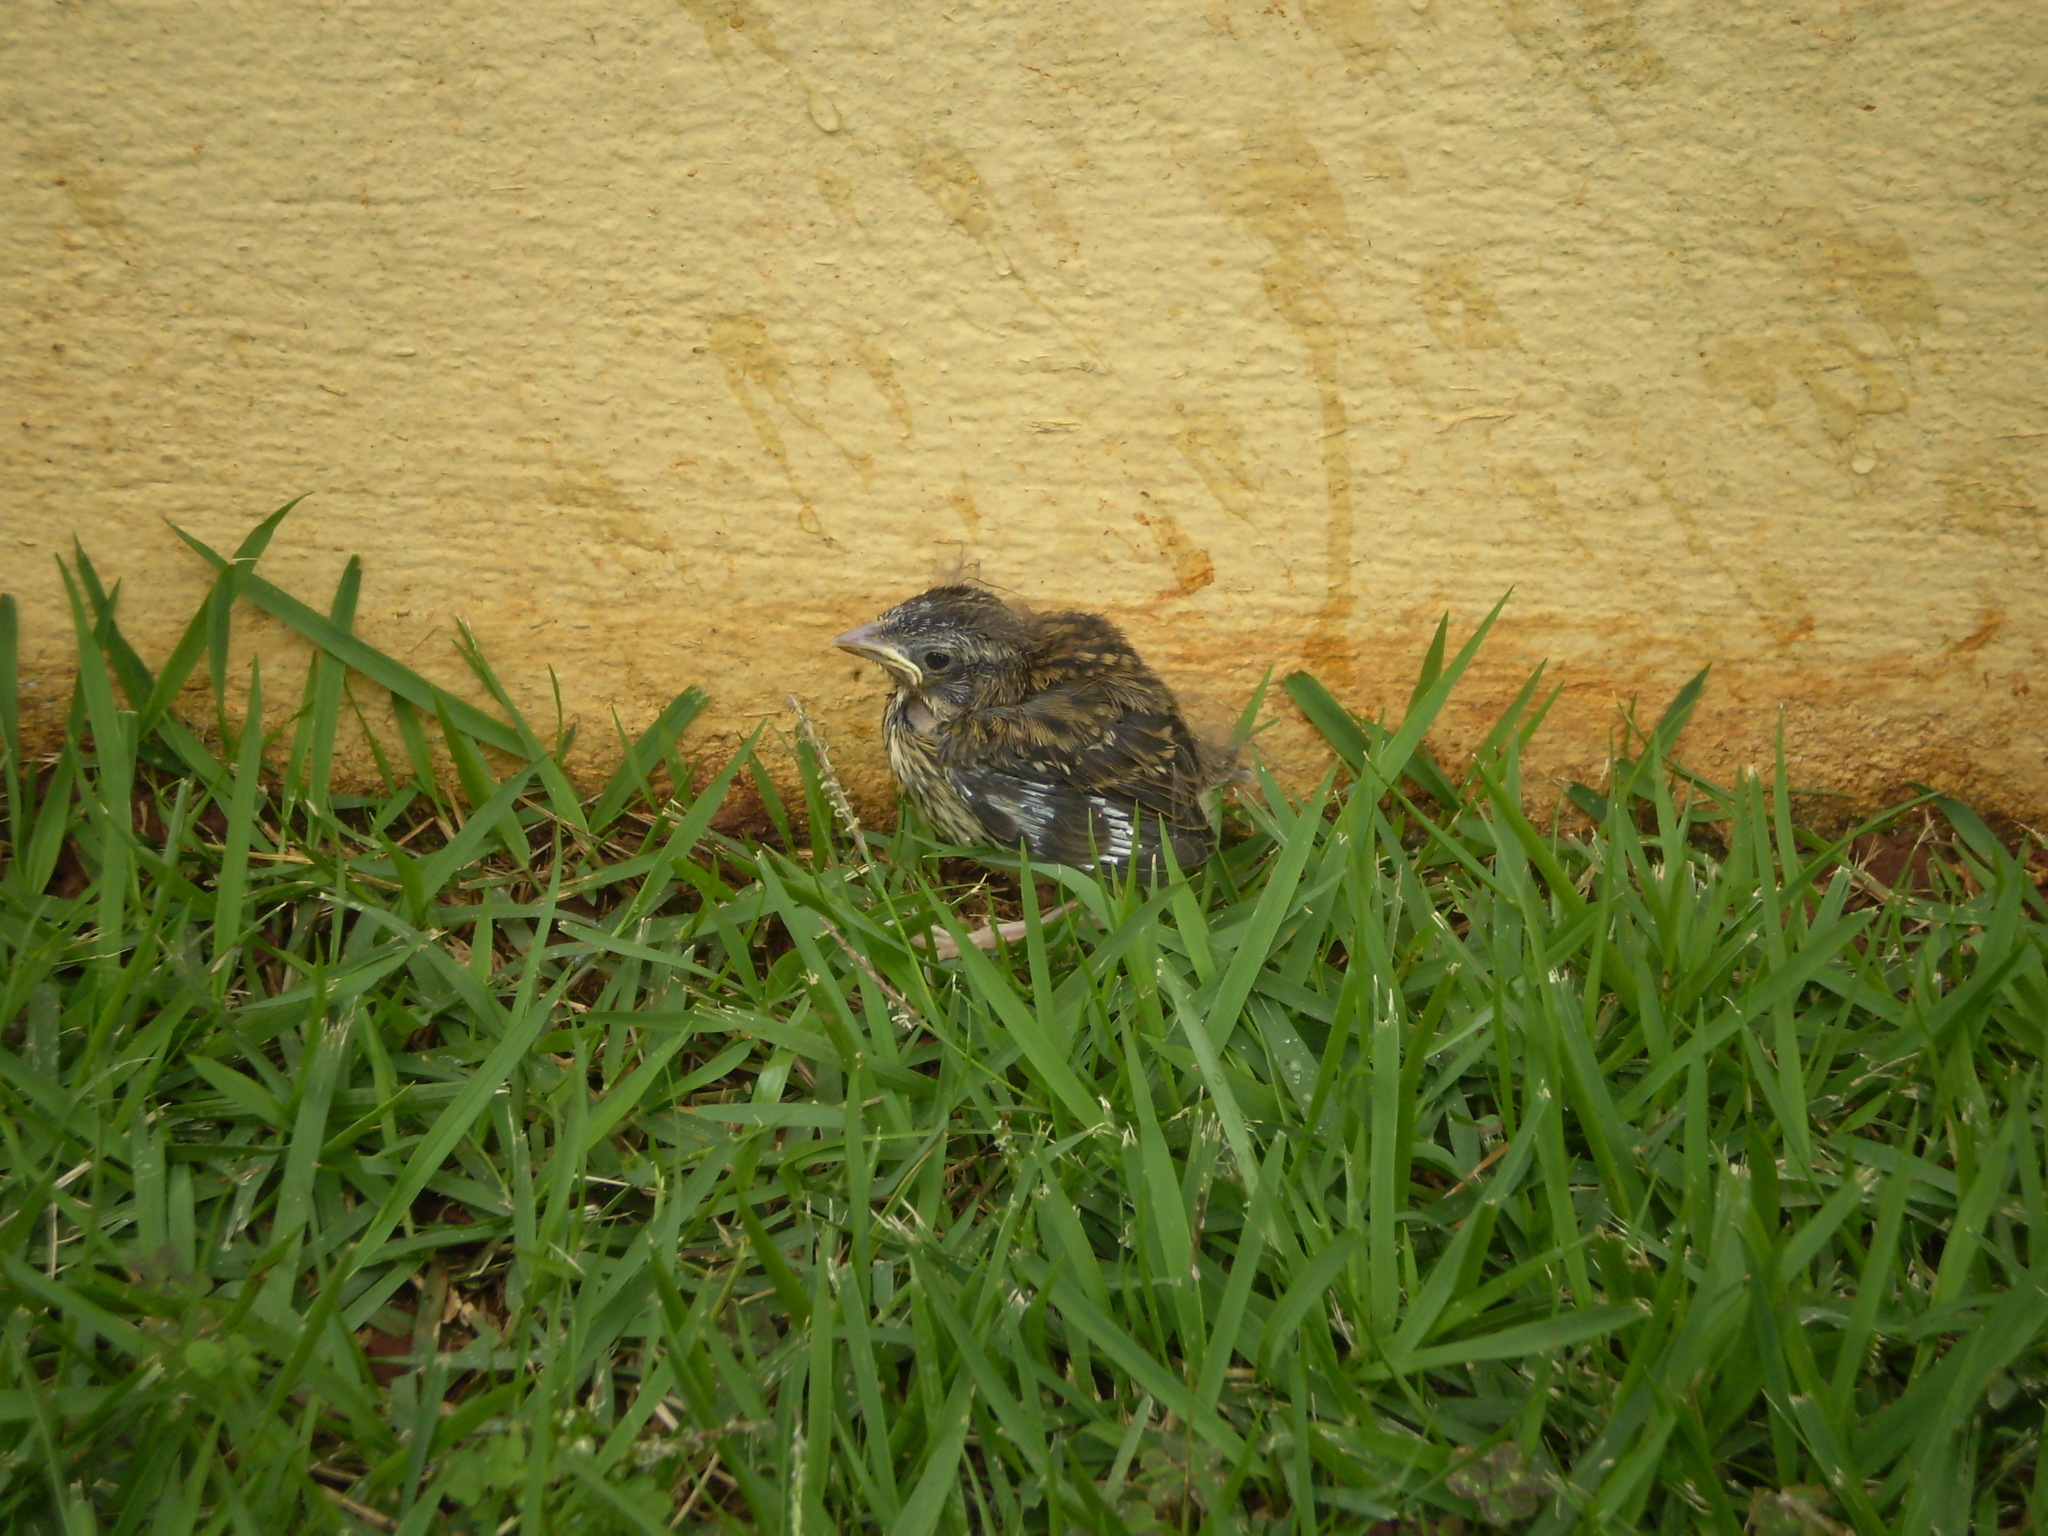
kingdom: Animalia
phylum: Chordata
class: Aves
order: Passeriformes
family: Passerellidae
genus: Zonotrichia
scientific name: Zonotrichia capensis
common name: Rufous-collared sparrow
